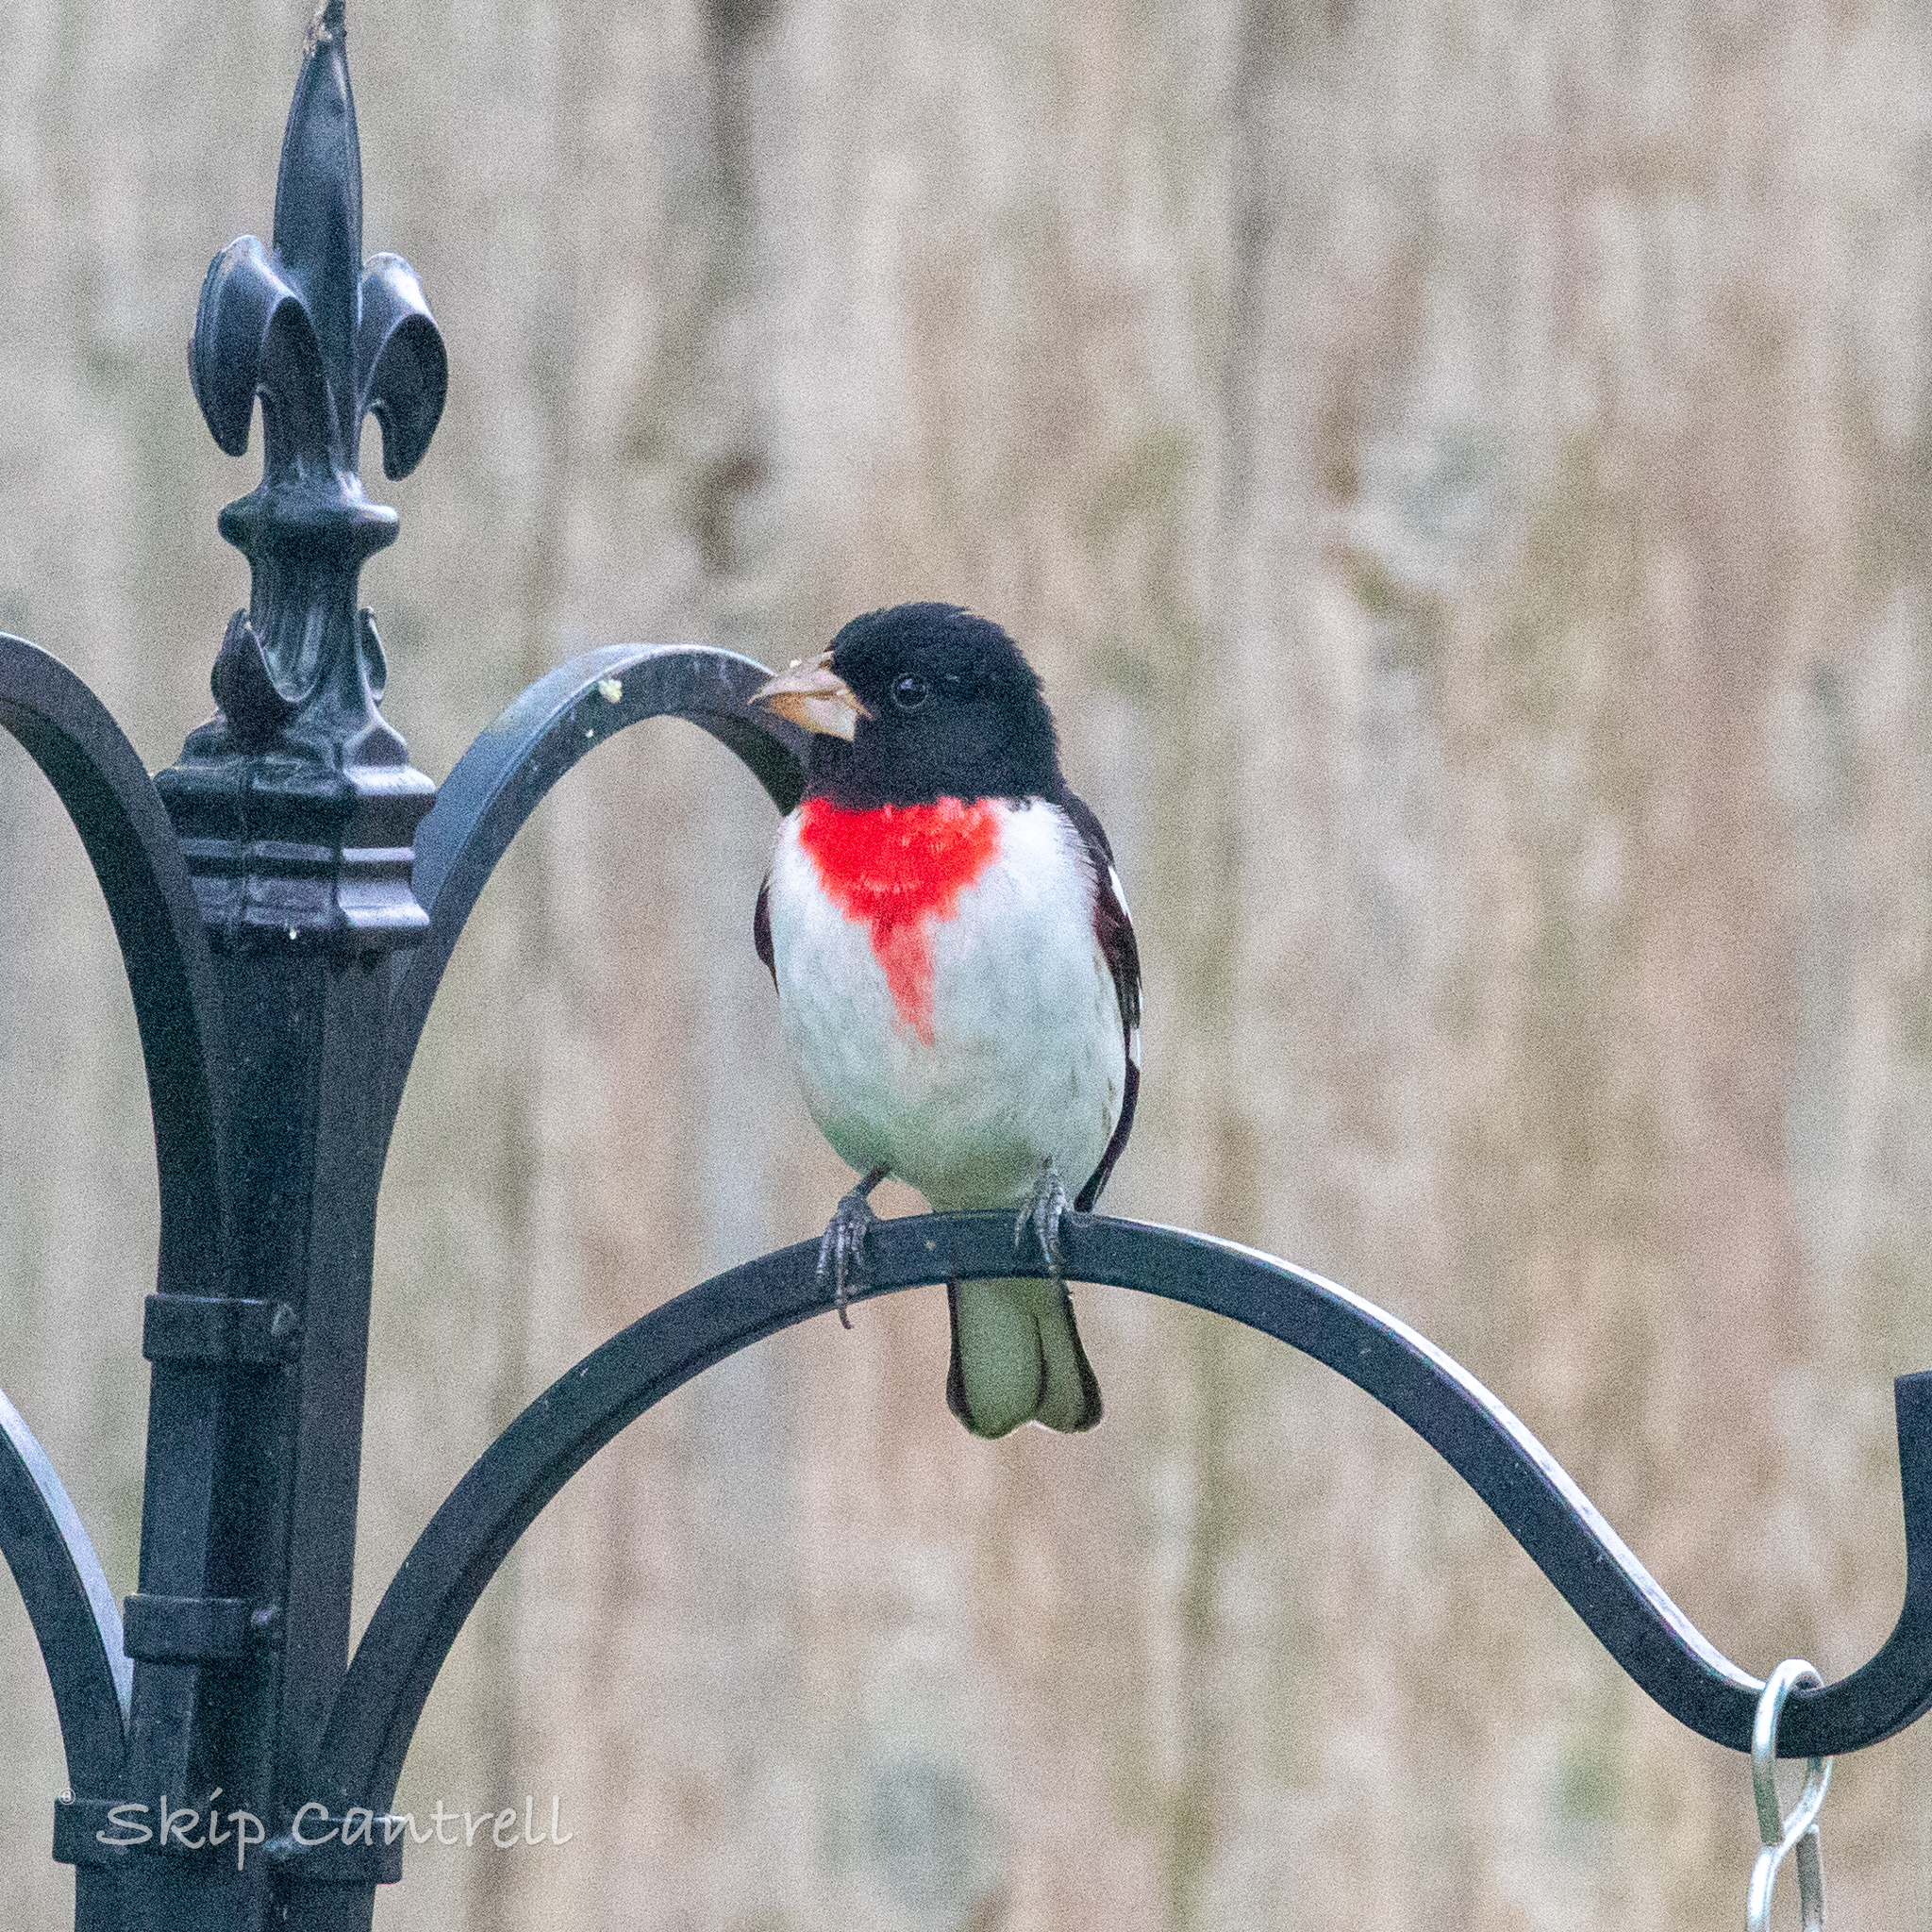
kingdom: Animalia
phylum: Chordata
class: Aves
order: Passeriformes
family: Cardinalidae
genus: Pheucticus
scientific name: Pheucticus ludovicianus
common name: Rose-breasted grosbeak
